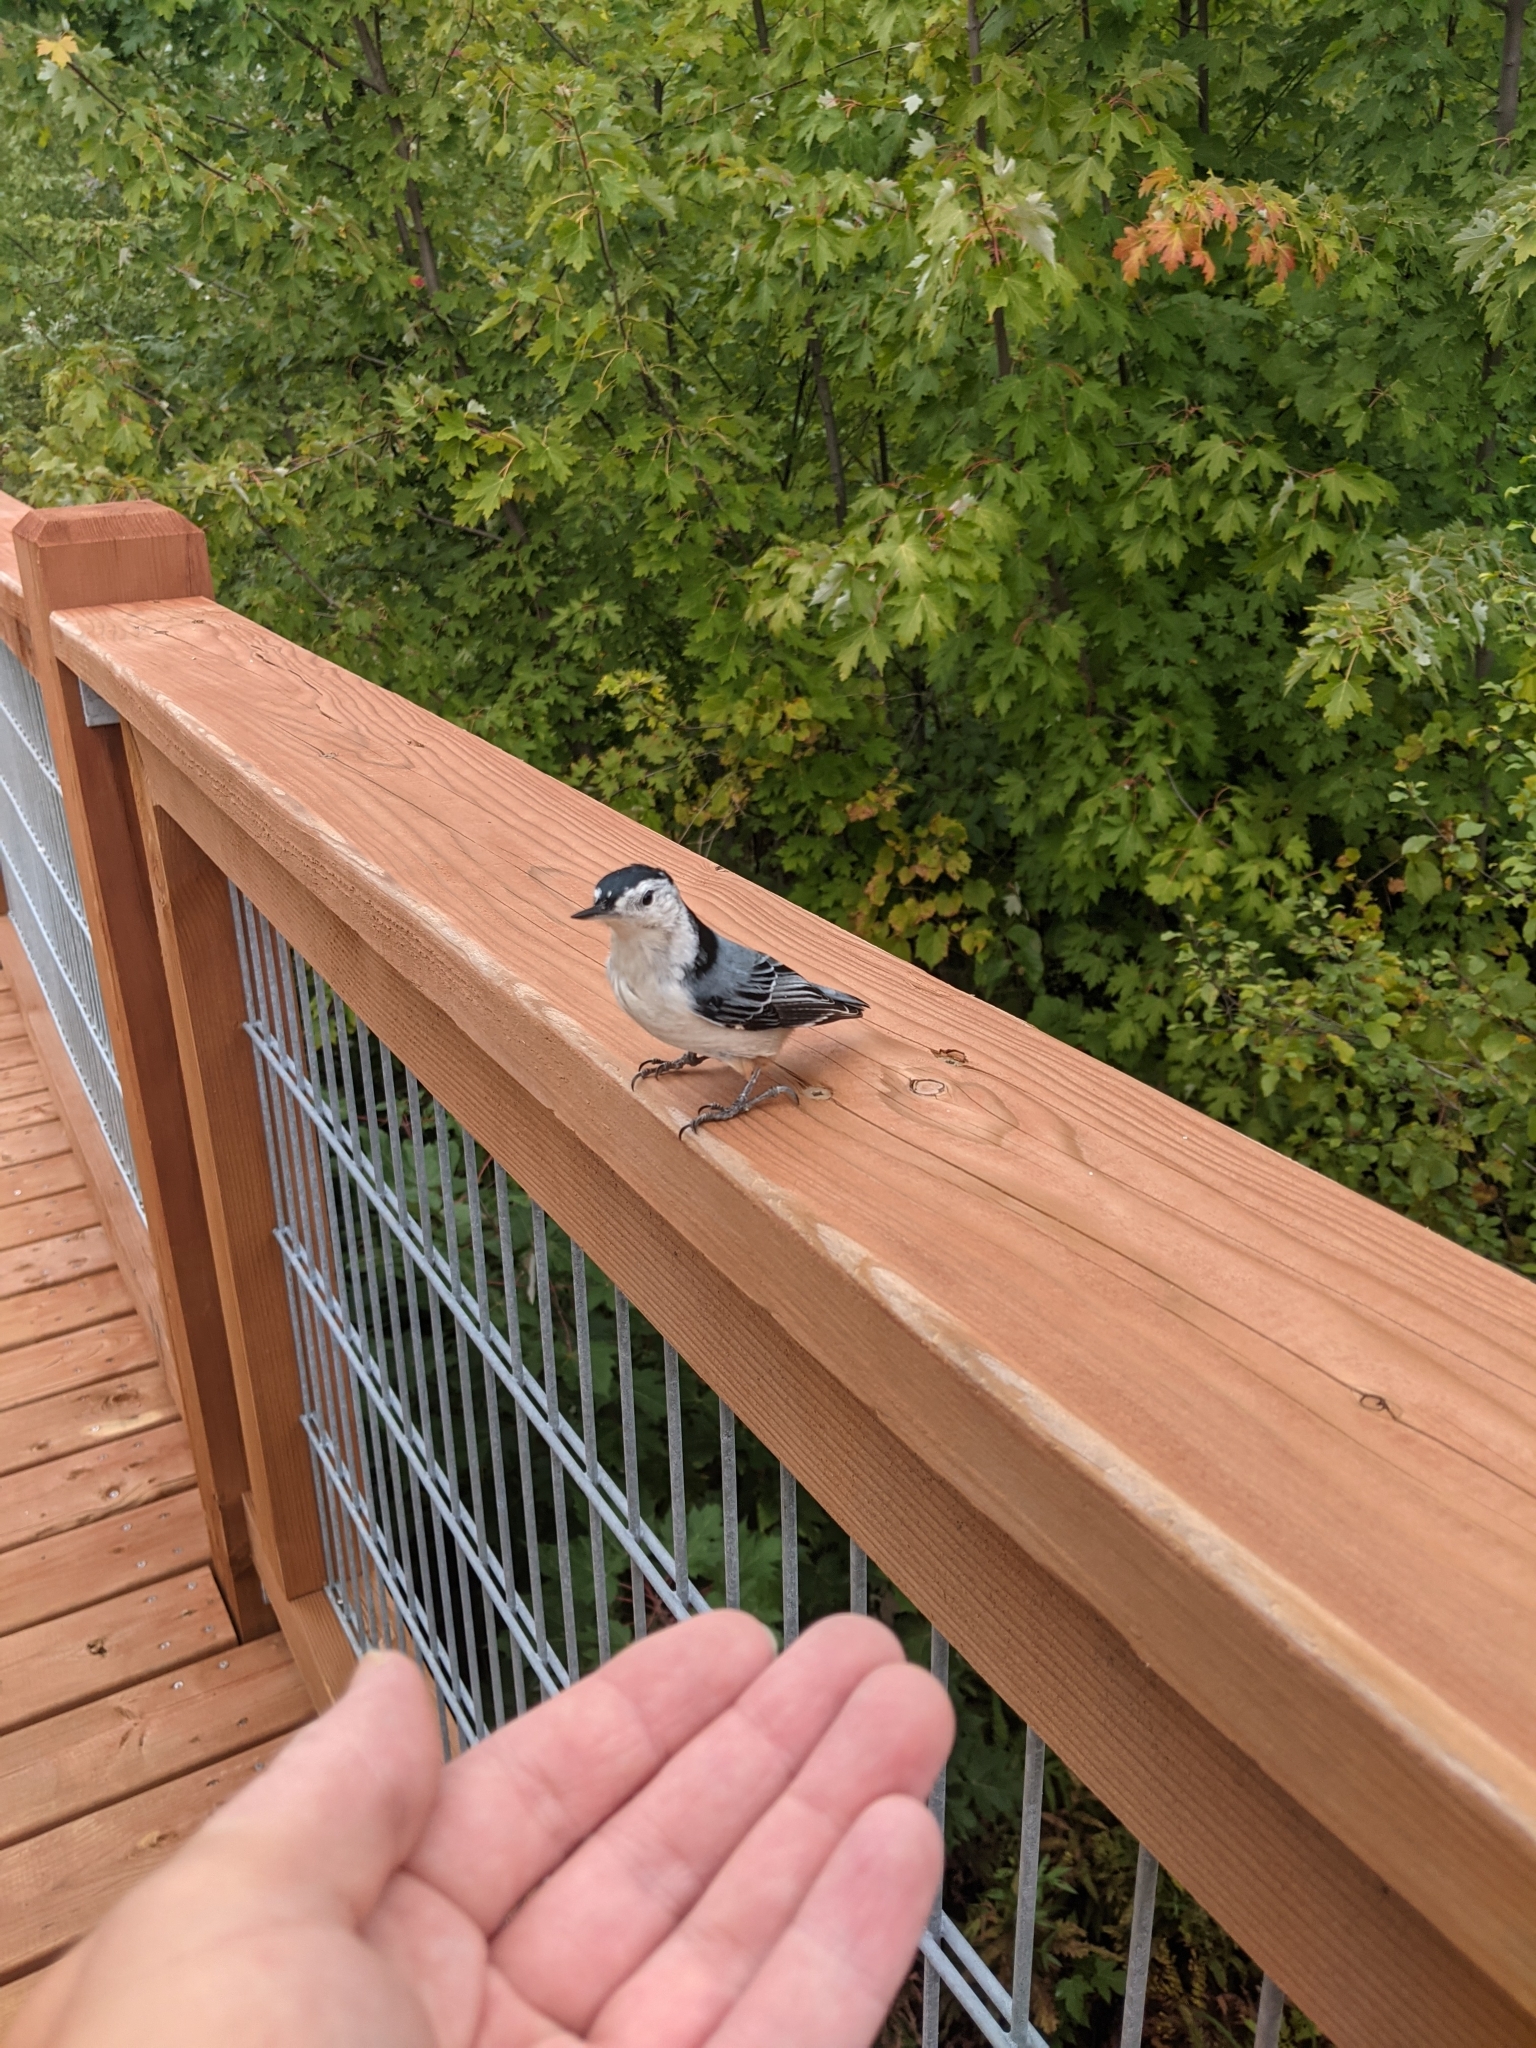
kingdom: Animalia
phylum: Chordata
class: Aves
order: Passeriformes
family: Sittidae
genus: Sitta
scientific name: Sitta carolinensis
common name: White-breasted nuthatch
